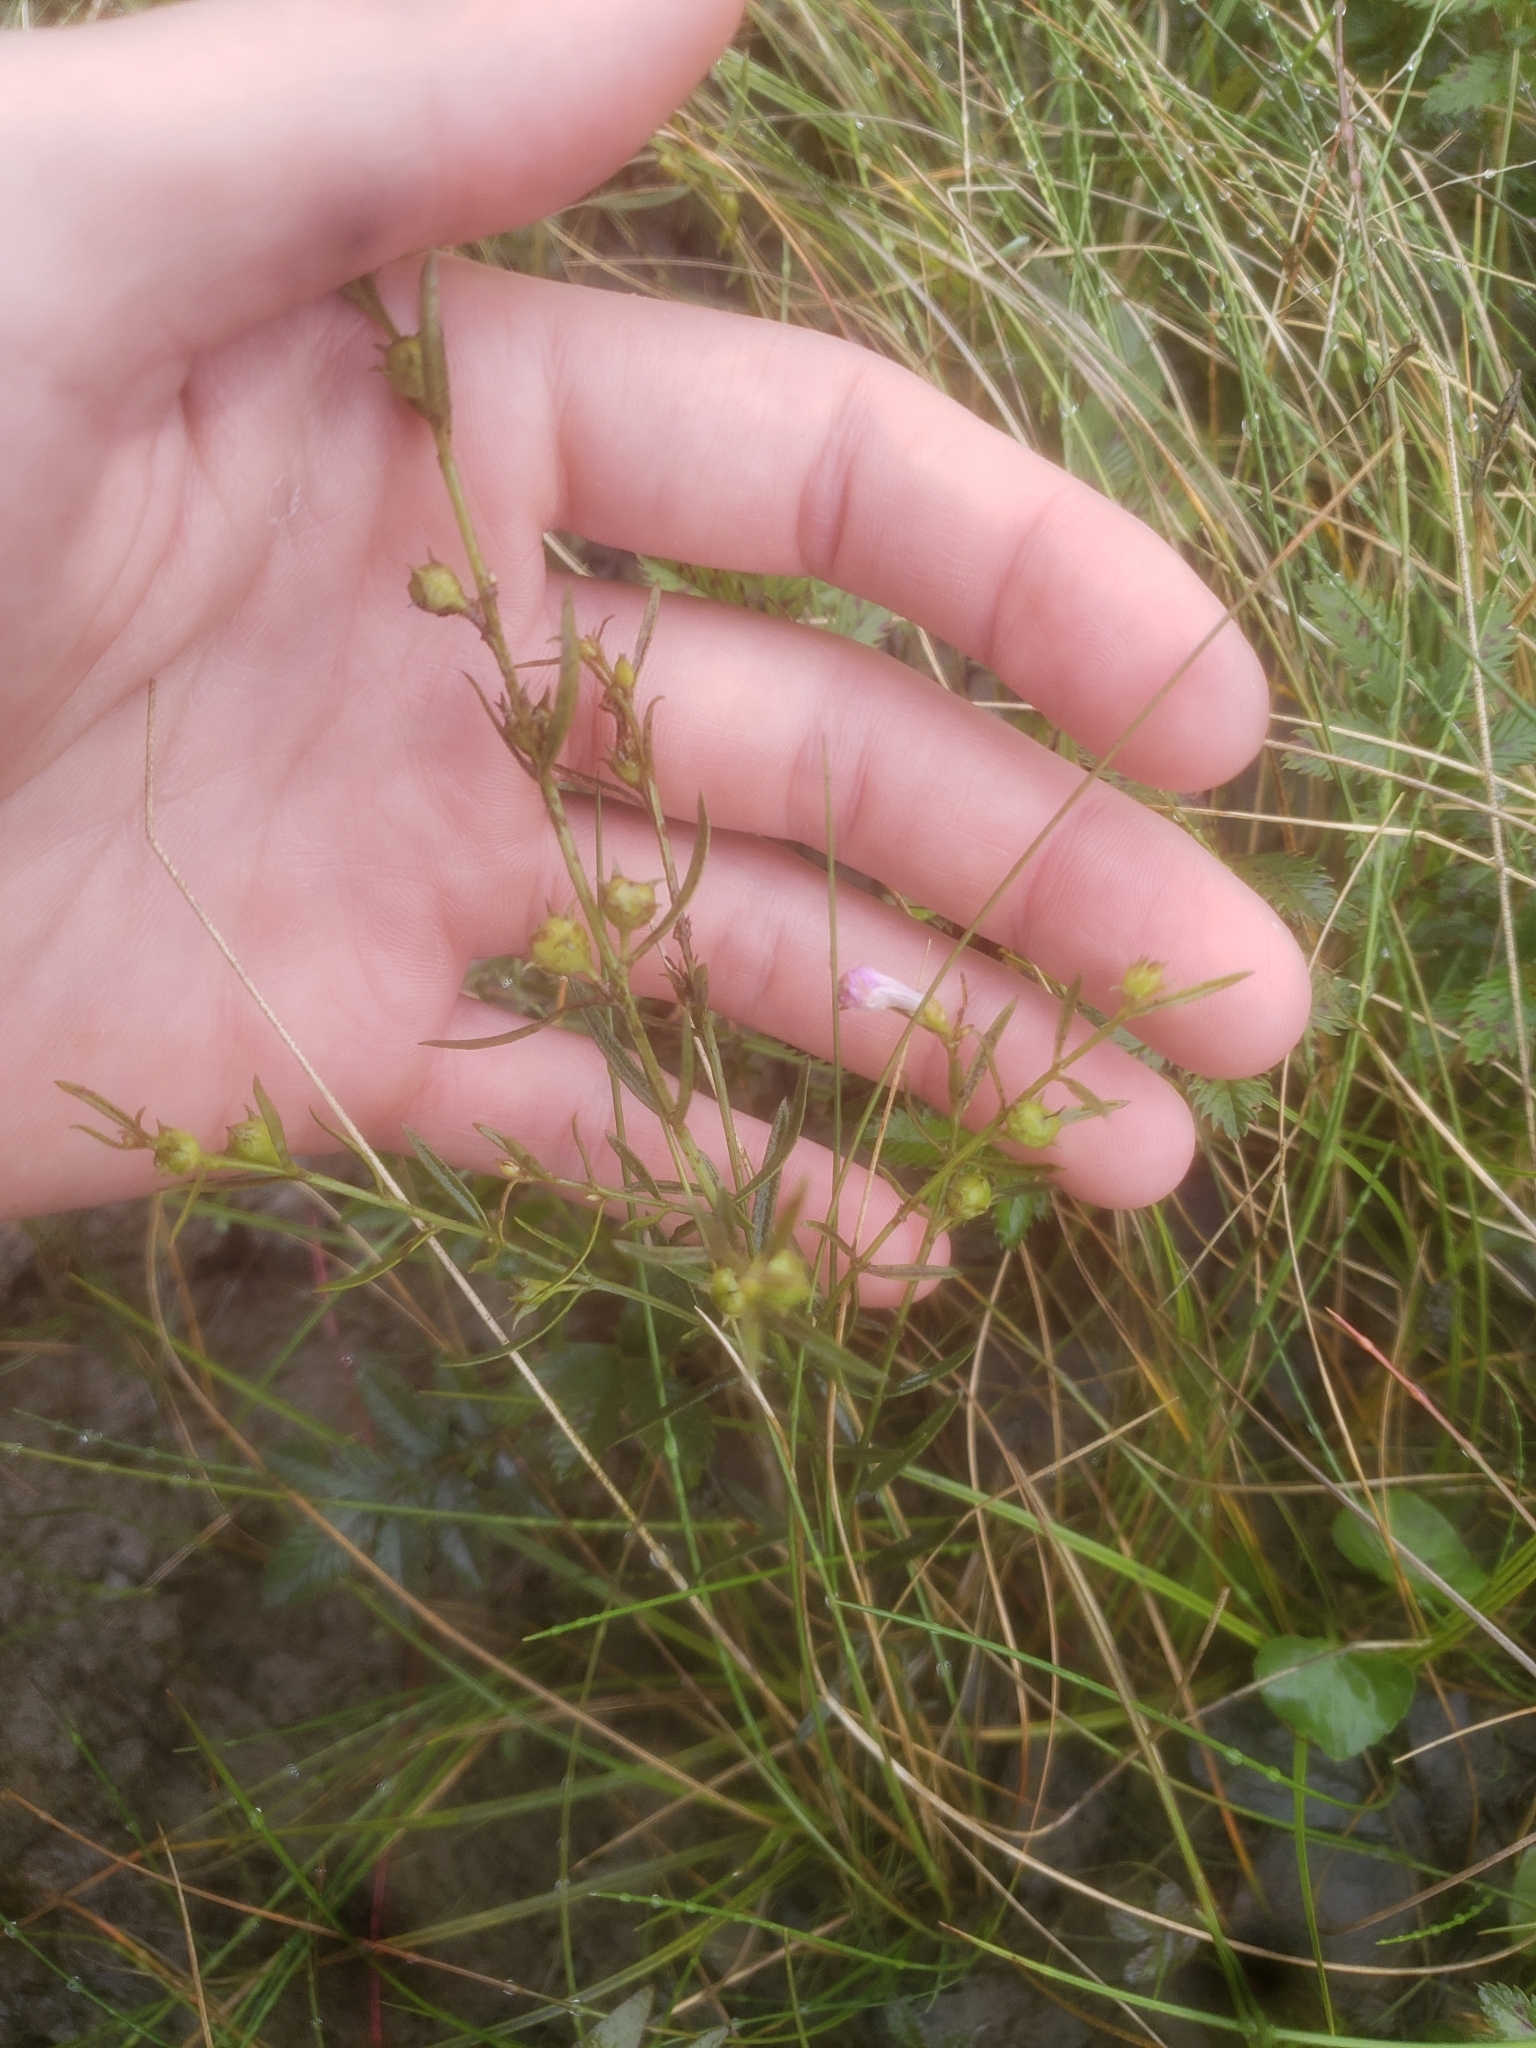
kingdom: Plantae
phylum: Tracheophyta
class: Magnoliopsida
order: Lamiales
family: Orobanchaceae
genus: Agalinis
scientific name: Agalinis purpurea
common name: Purple false foxglove
